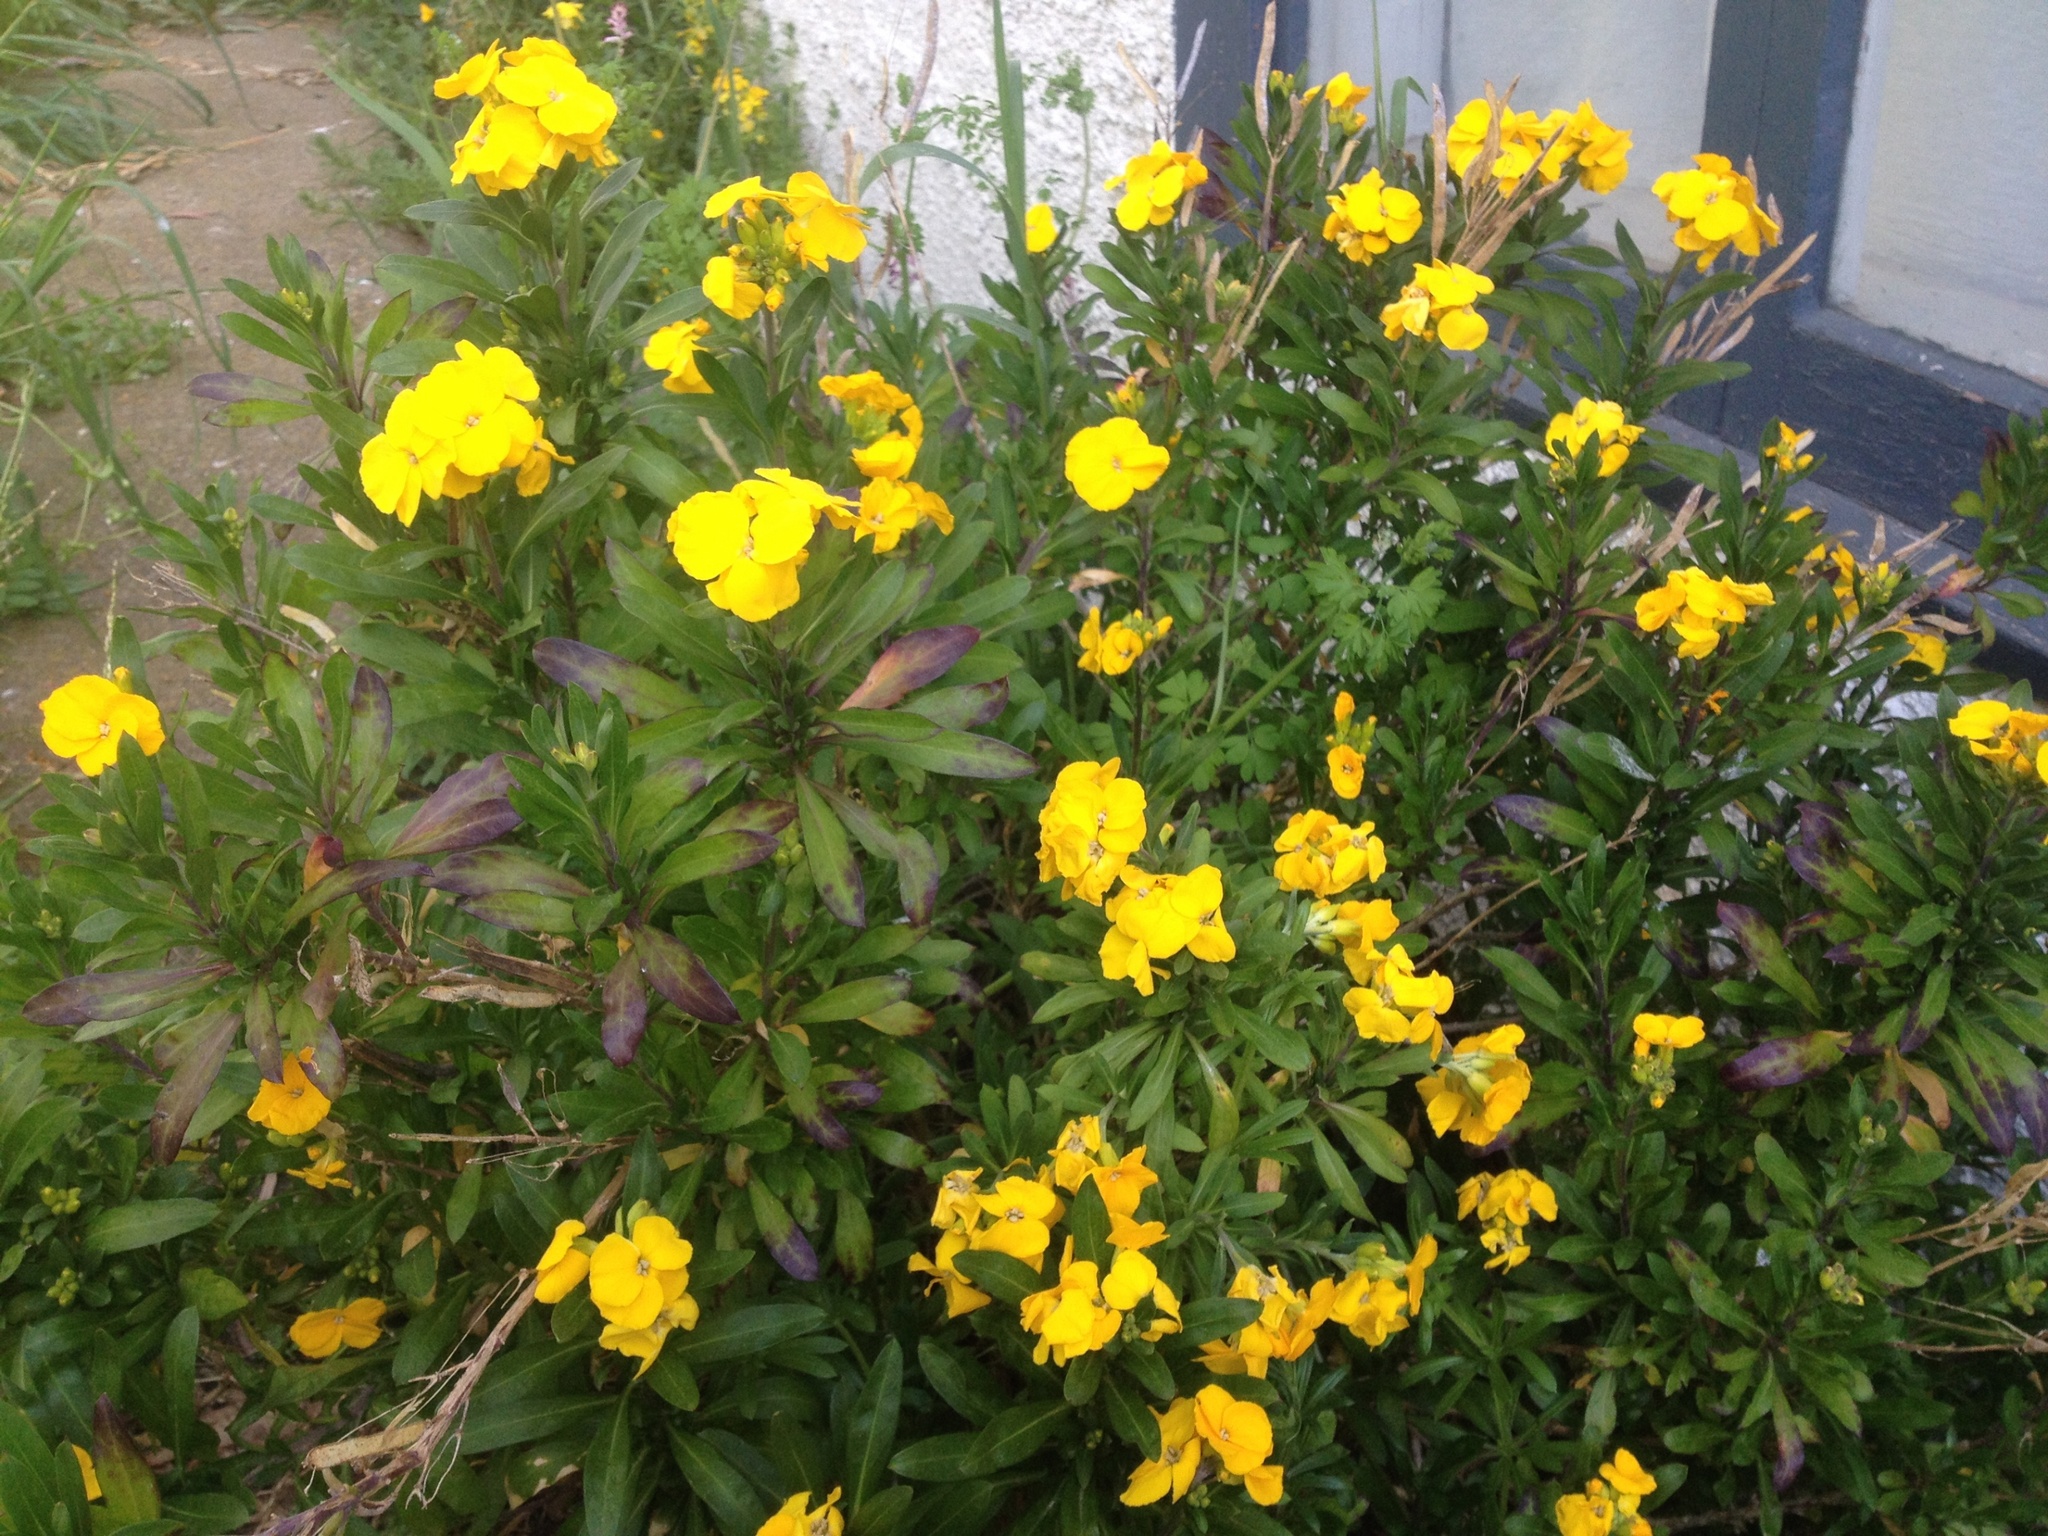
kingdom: Plantae
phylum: Tracheophyta
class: Magnoliopsida
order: Brassicales
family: Brassicaceae
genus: Erysimum
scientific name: Erysimum cheiri
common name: Wallflower
